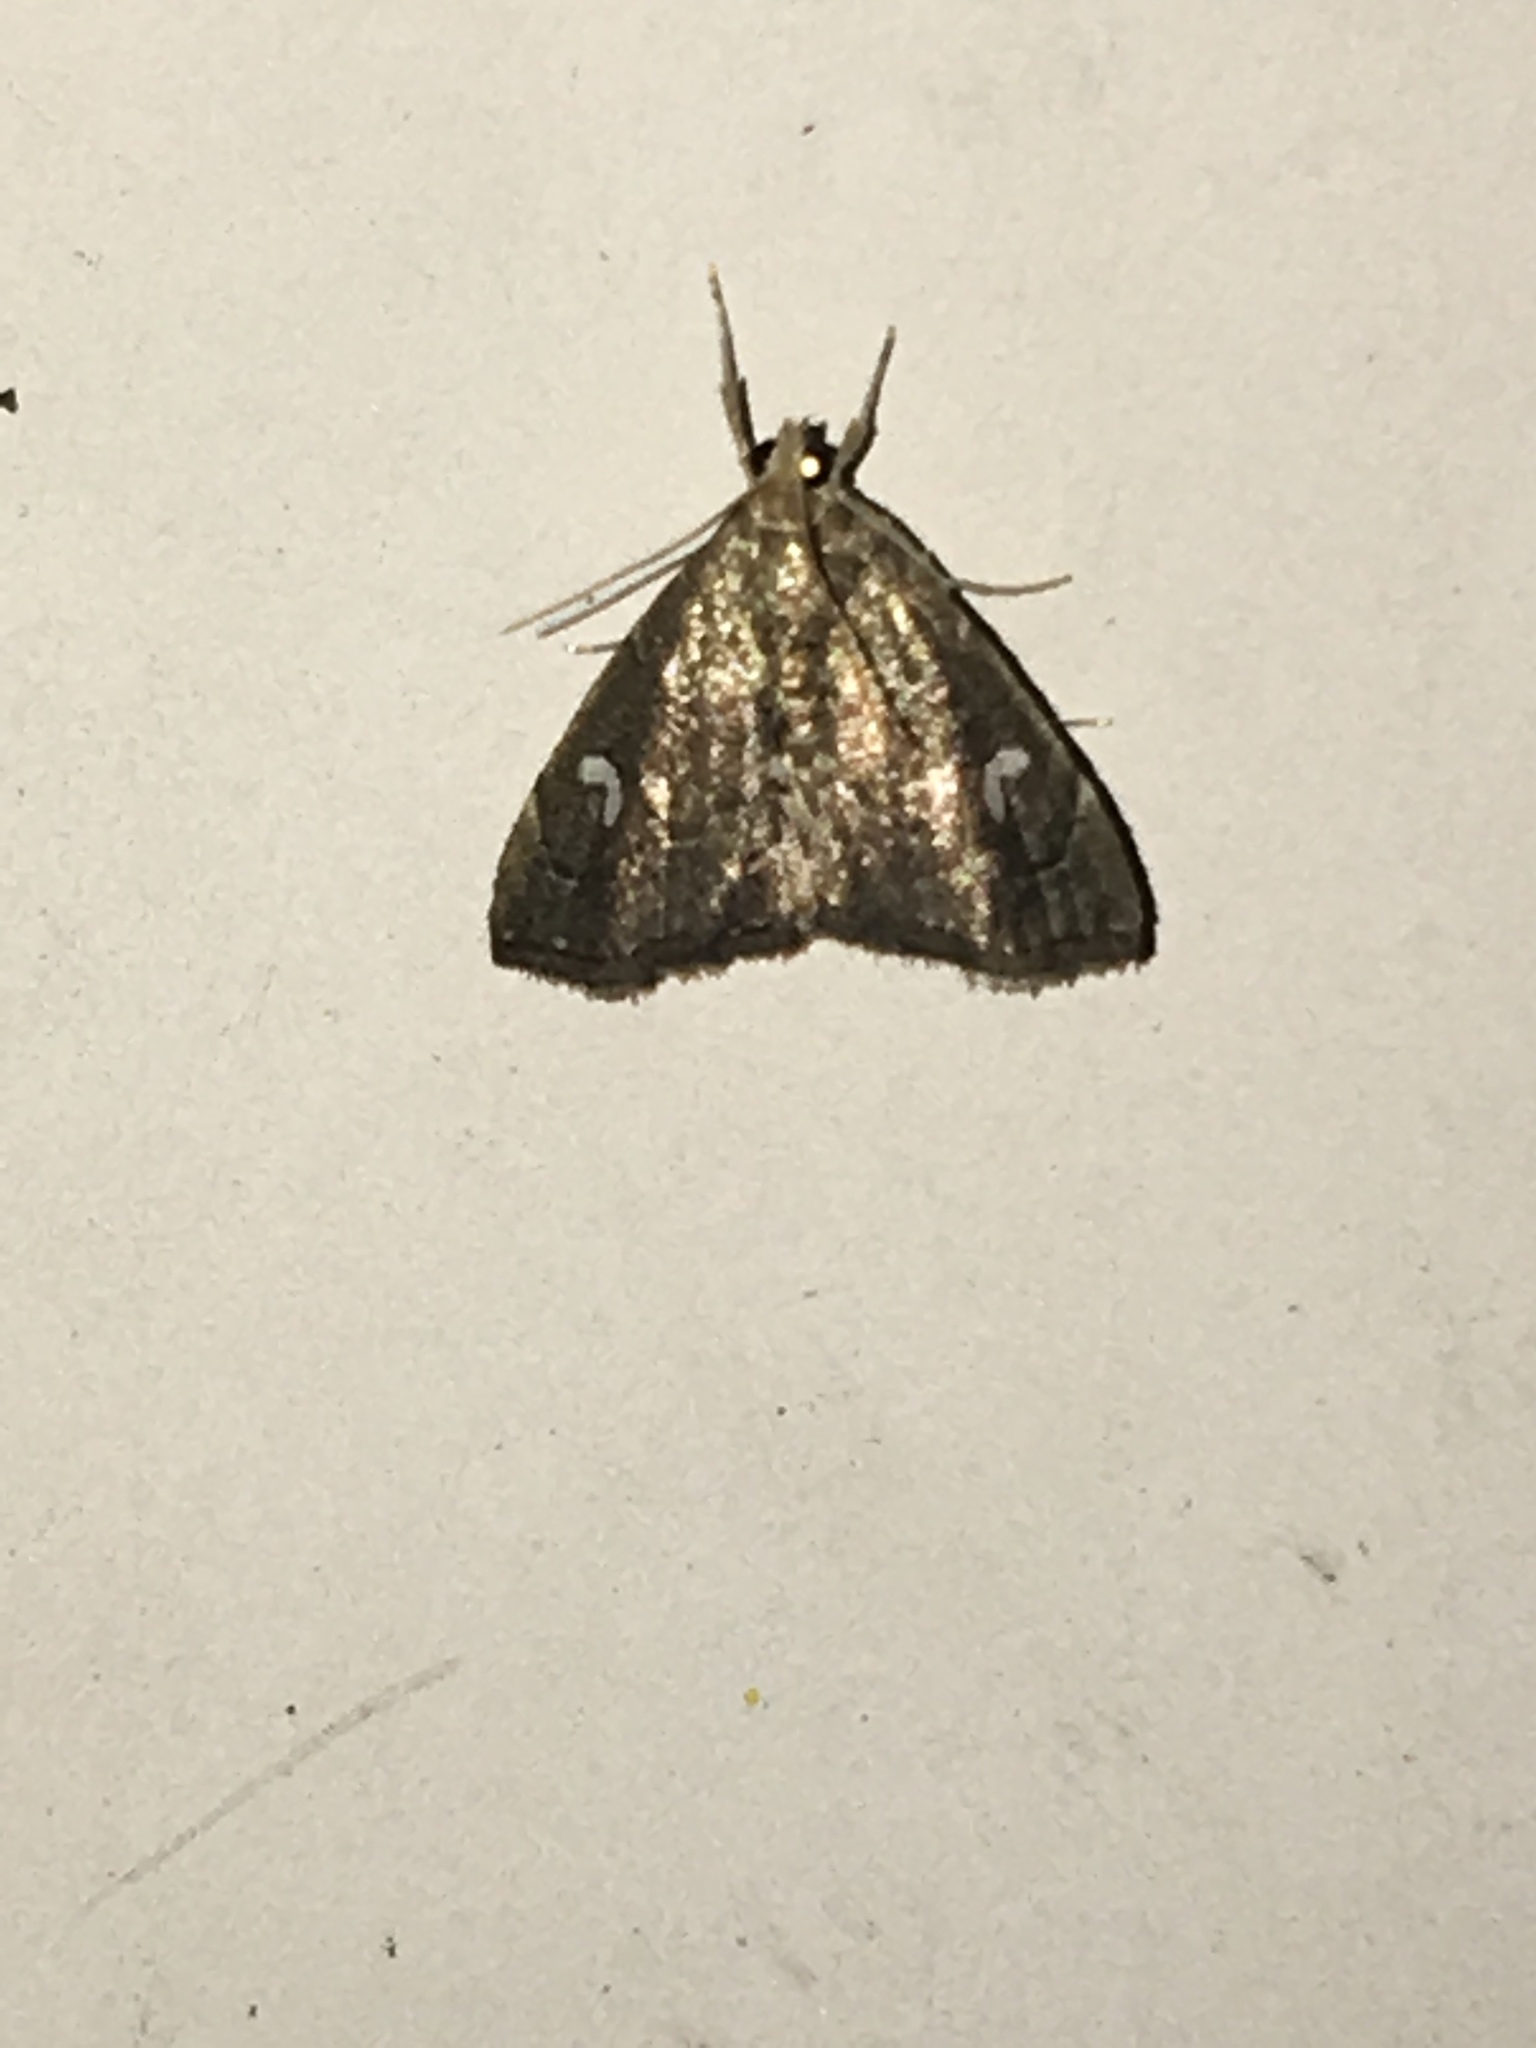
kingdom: Animalia
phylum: Arthropoda
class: Insecta
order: Lepidoptera
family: Crambidae
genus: Nephrogramma
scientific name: Nephrogramma reniculalis
